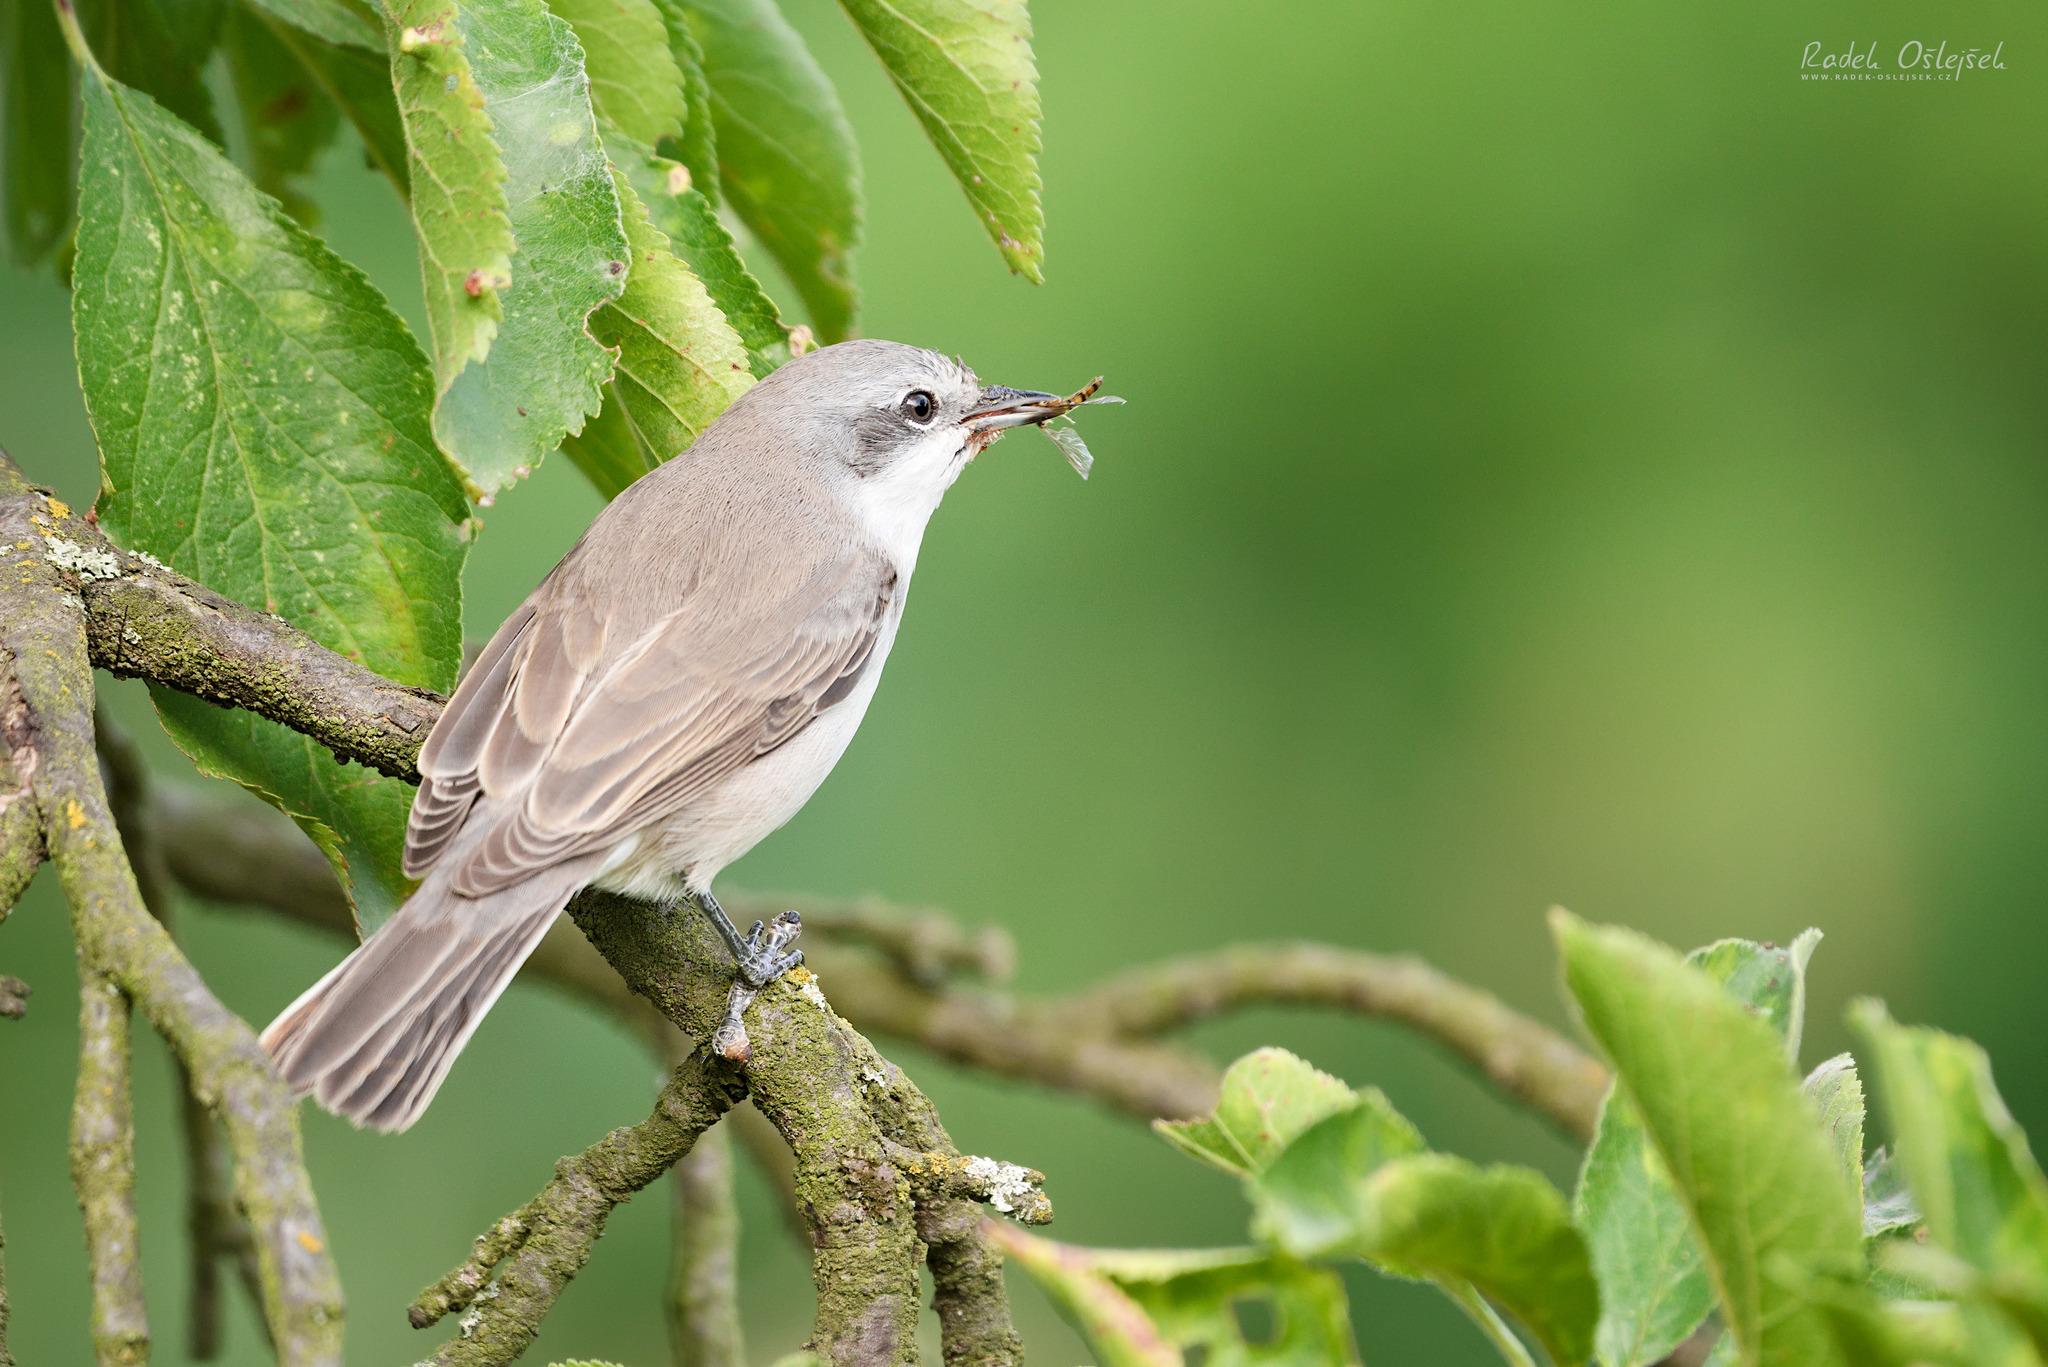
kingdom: Animalia
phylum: Chordata
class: Aves
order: Passeriformes
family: Sylviidae
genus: Sylvia
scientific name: Sylvia curruca
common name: Lesser whitethroat
